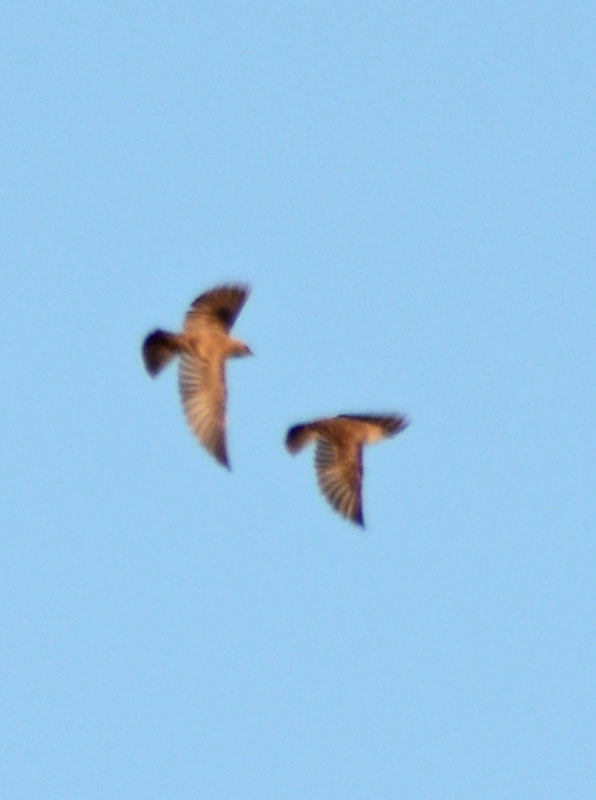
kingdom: Animalia
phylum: Chordata
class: Aves
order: Passeriformes
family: Hirundinidae
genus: Stelgidopteryx
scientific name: Stelgidopteryx serripennis
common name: Northern rough-winged swallow
